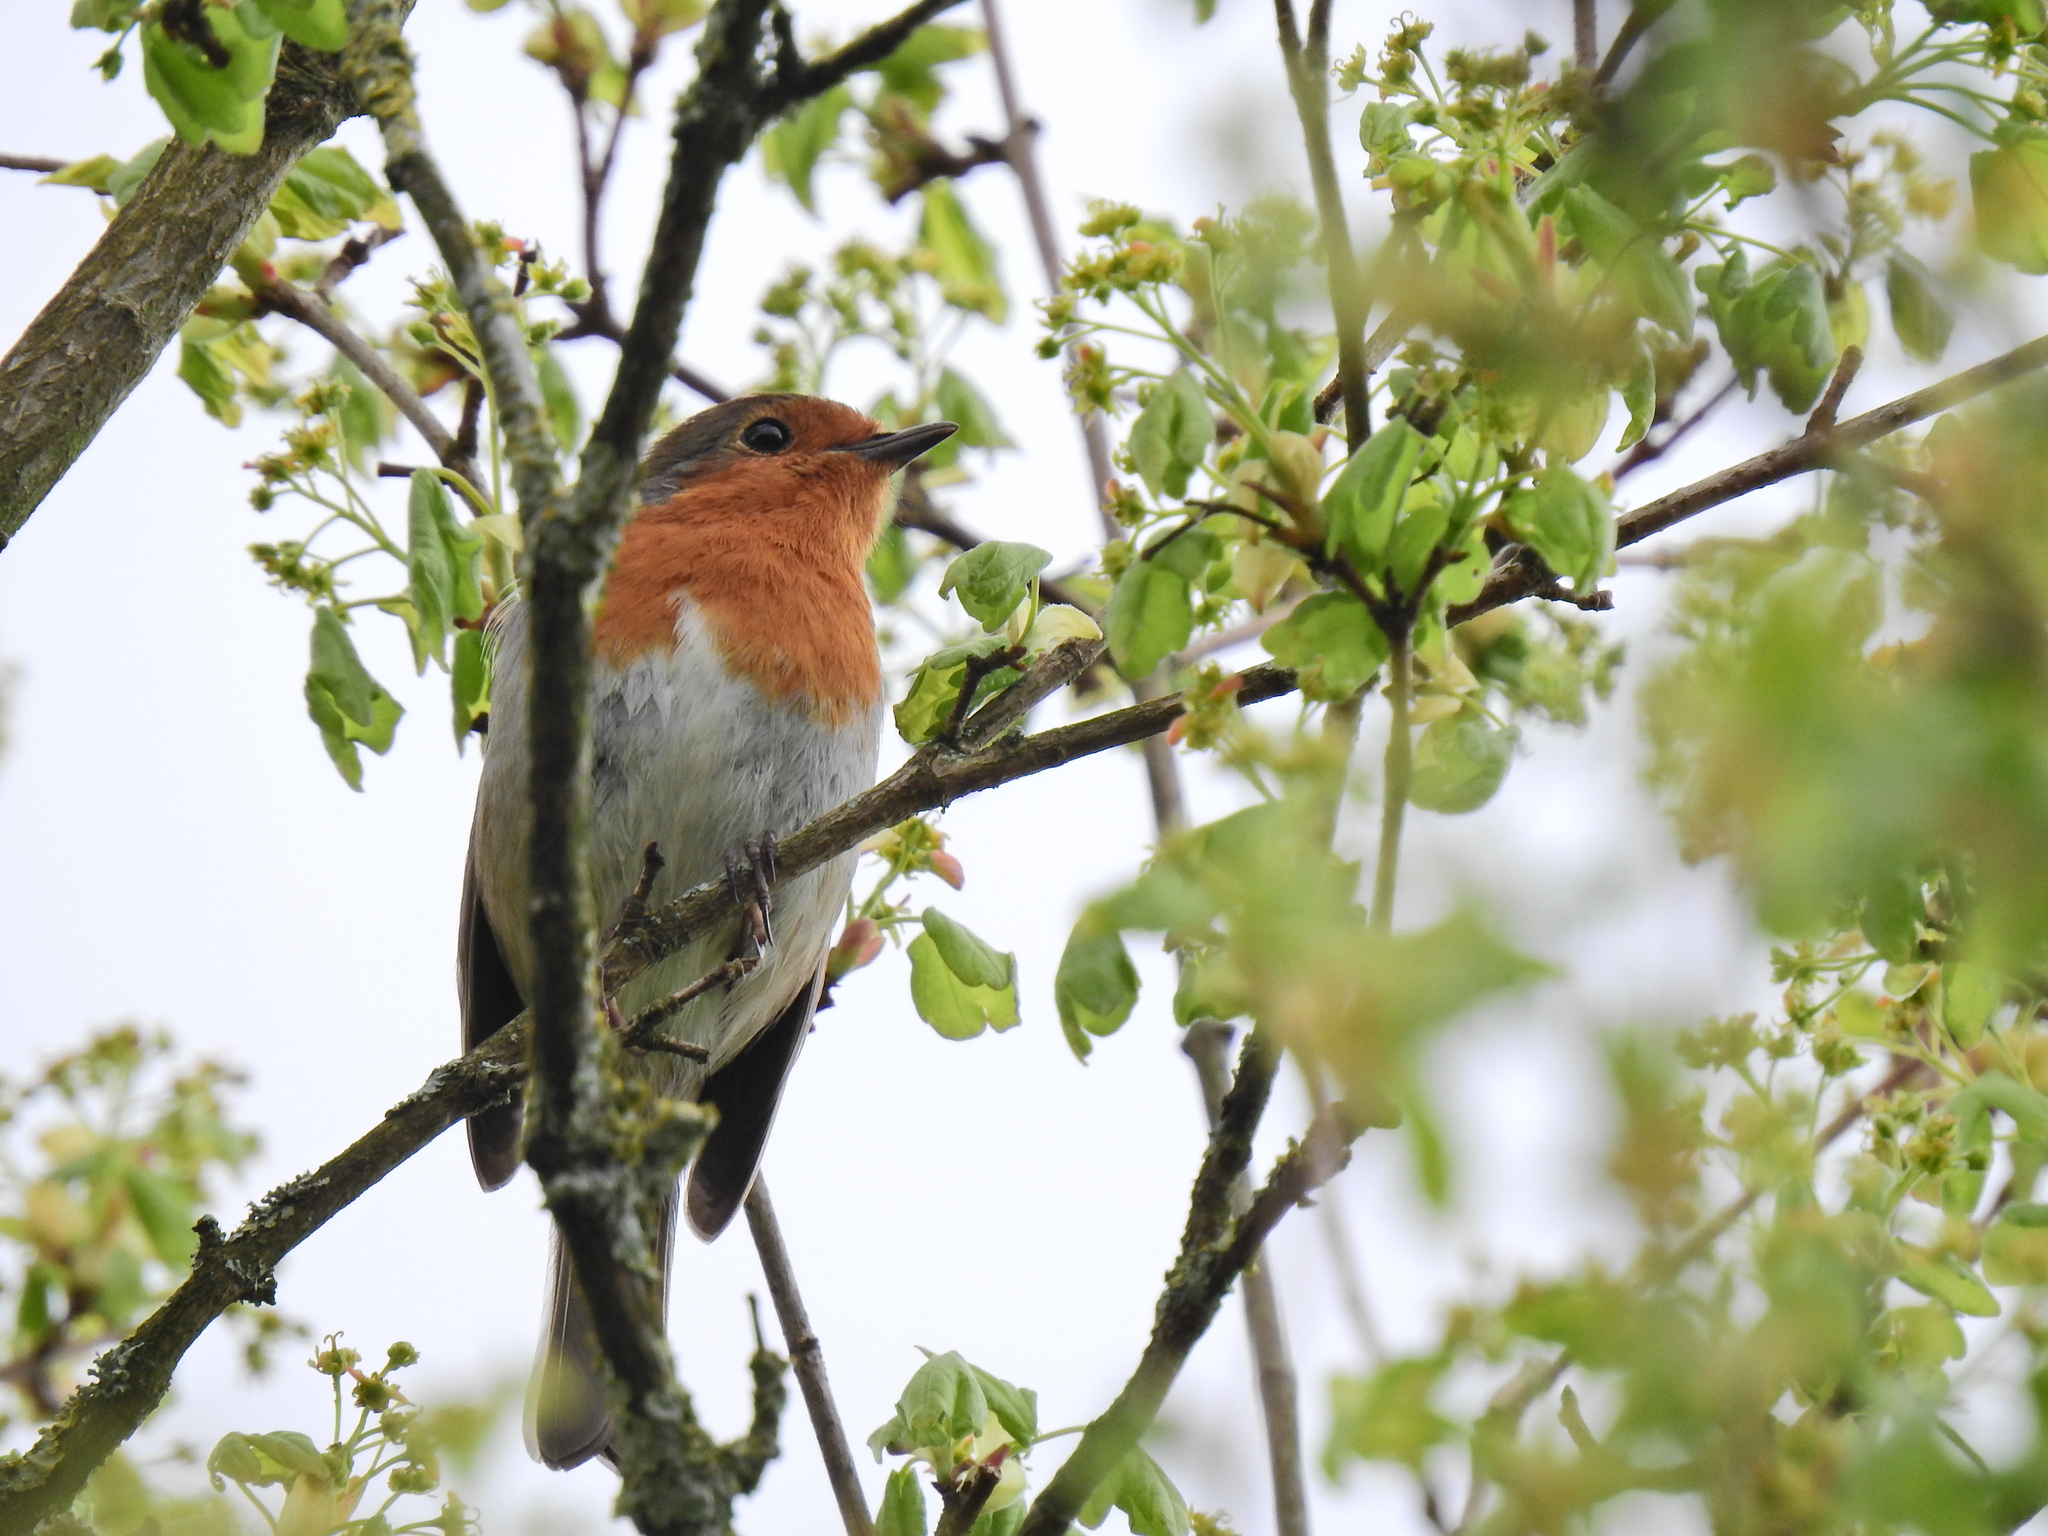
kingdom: Animalia
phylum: Chordata
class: Aves
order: Passeriformes
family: Muscicapidae
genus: Erithacus
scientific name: Erithacus rubecula
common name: European robin
